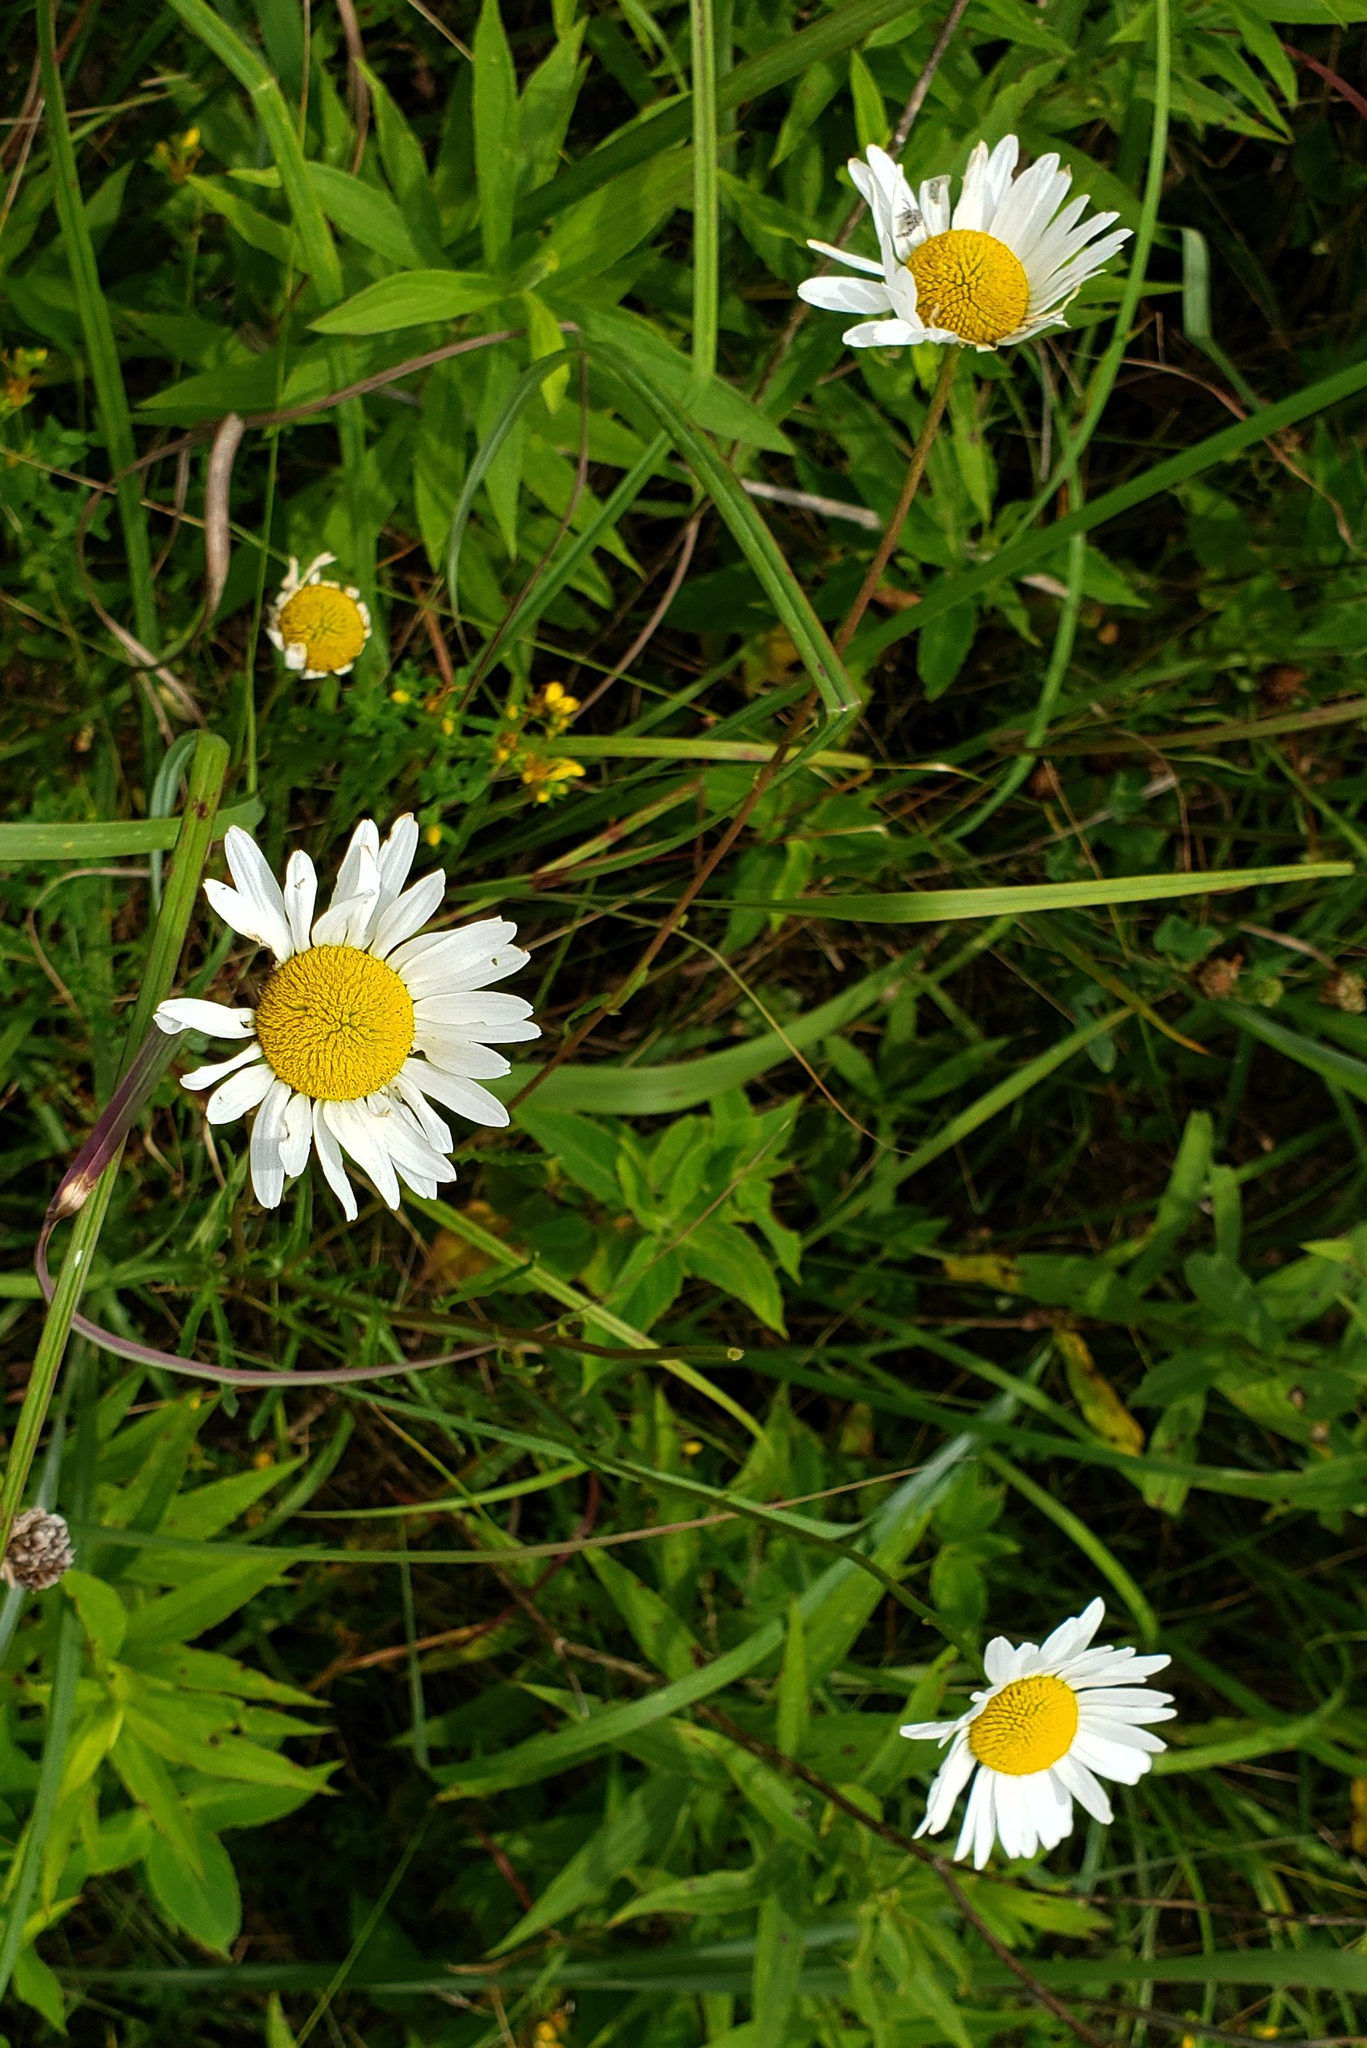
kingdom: Plantae
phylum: Tracheophyta
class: Magnoliopsida
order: Asterales
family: Asteraceae
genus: Leucanthemum
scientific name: Leucanthemum vulgare
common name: Oxeye daisy
